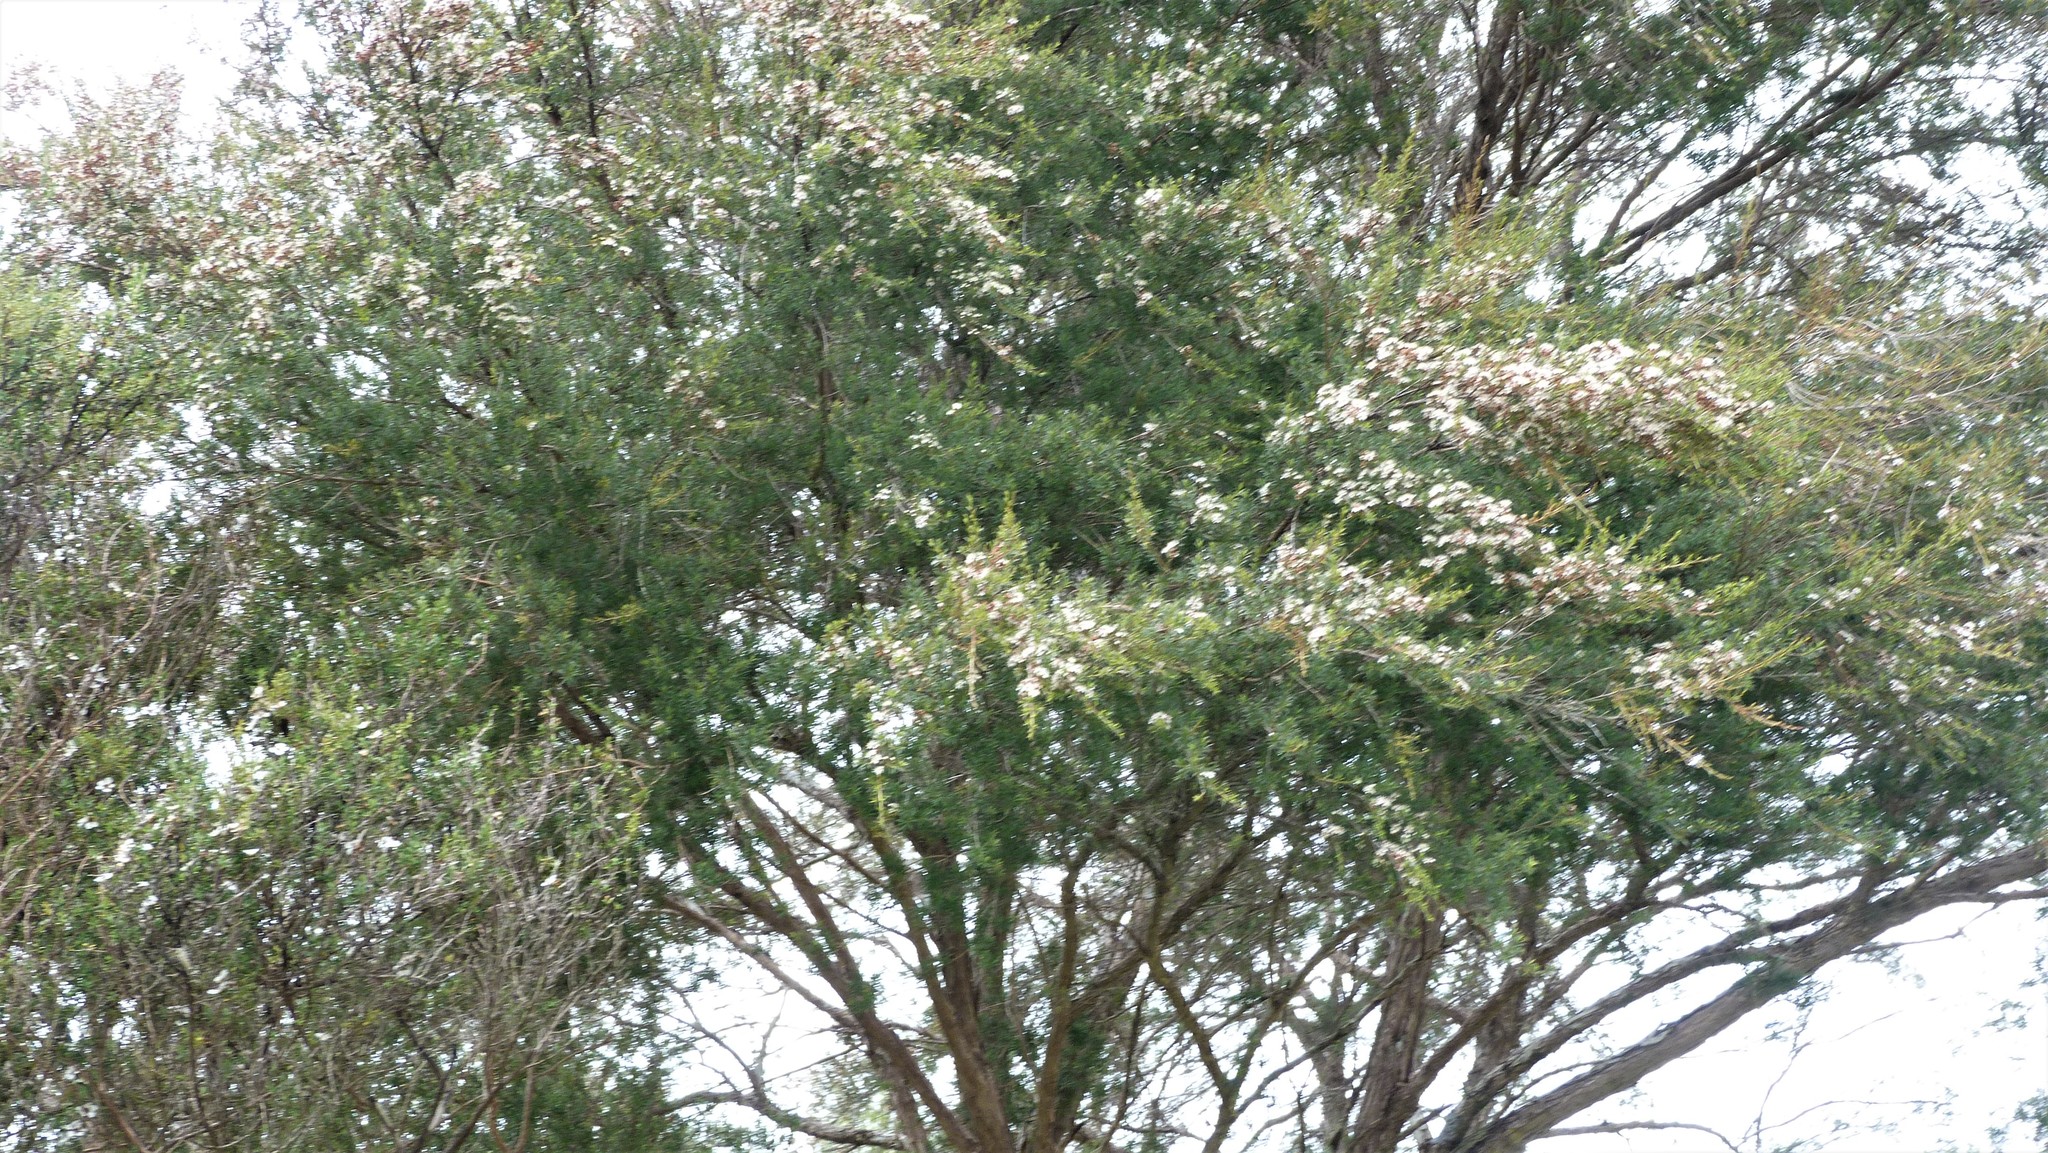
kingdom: Plantae
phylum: Tracheophyta
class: Magnoliopsida
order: Myrtales
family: Myrtaceae
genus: Kunzea
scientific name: Kunzea robusta
